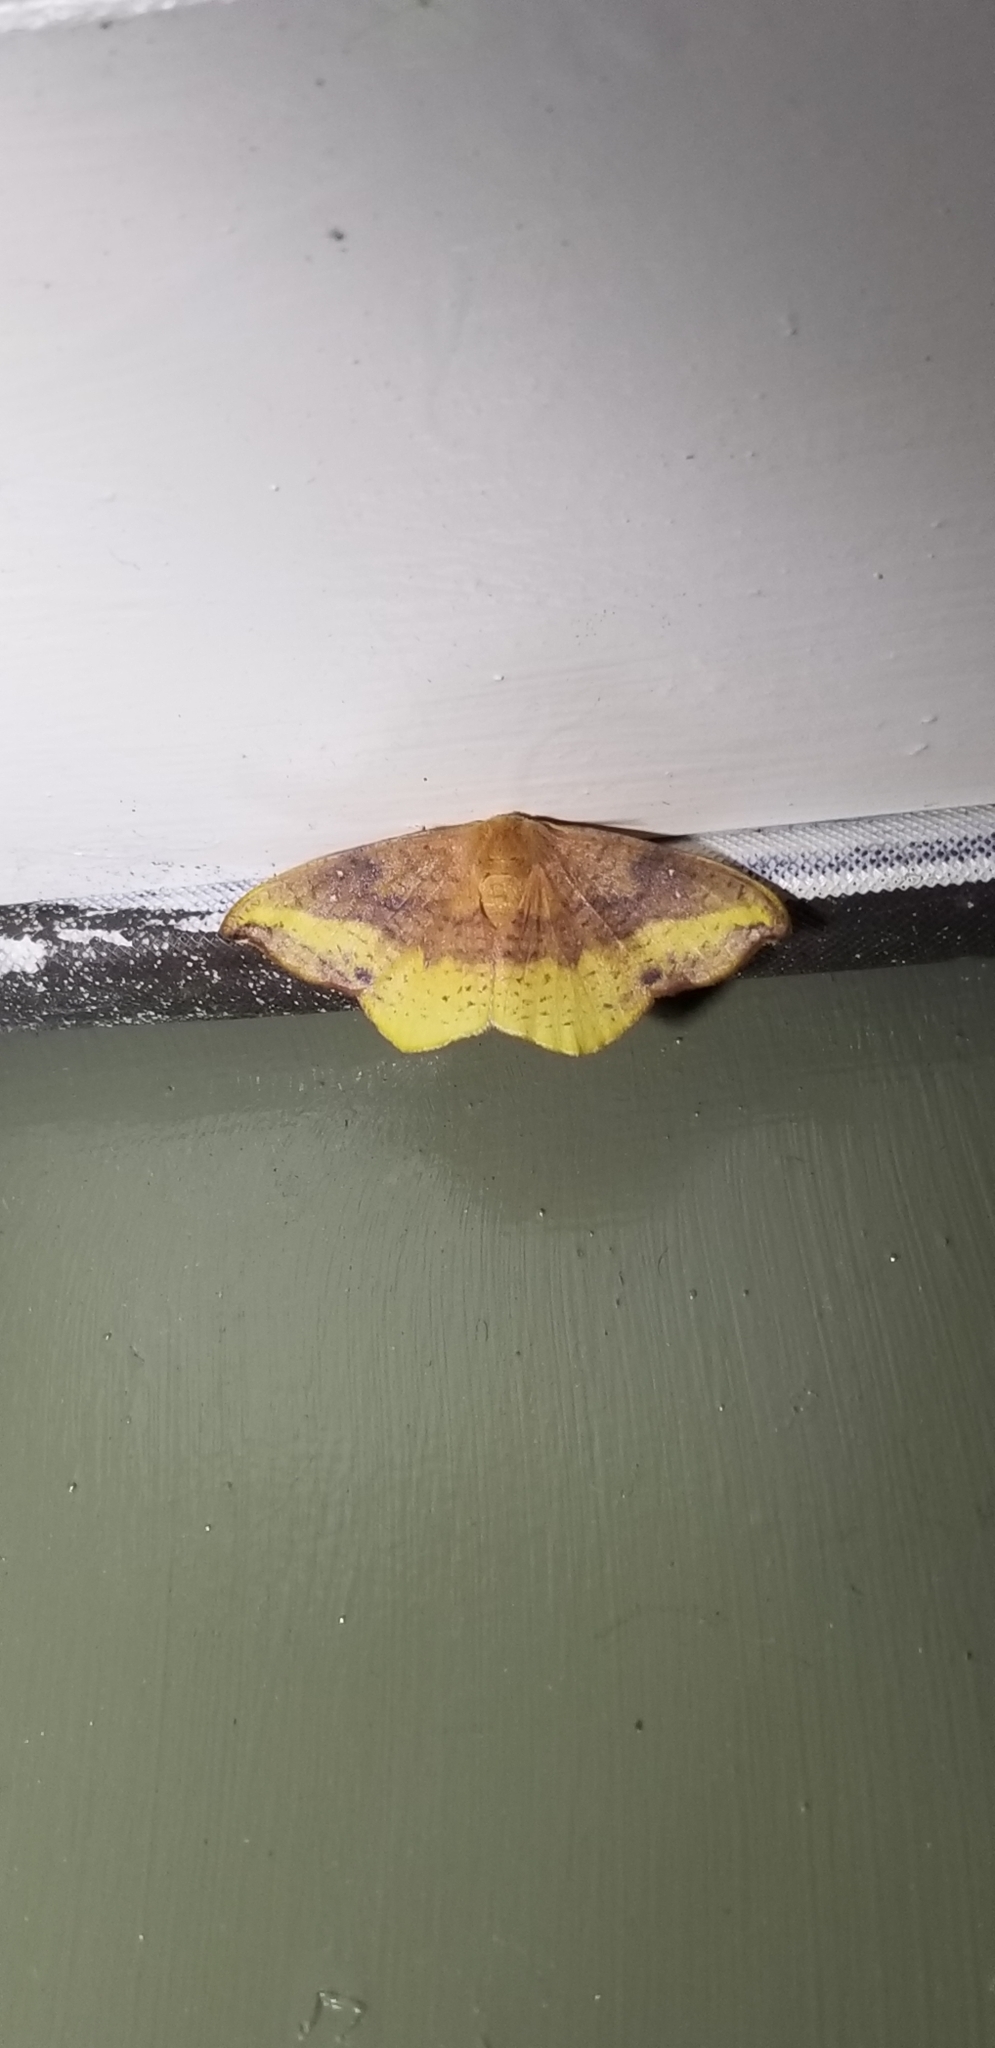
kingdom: Animalia
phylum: Arthropoda
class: Insecta
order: Lepidoptera
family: Drepanidae
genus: Oreta
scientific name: Oreta rosea
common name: Rose hooktip
